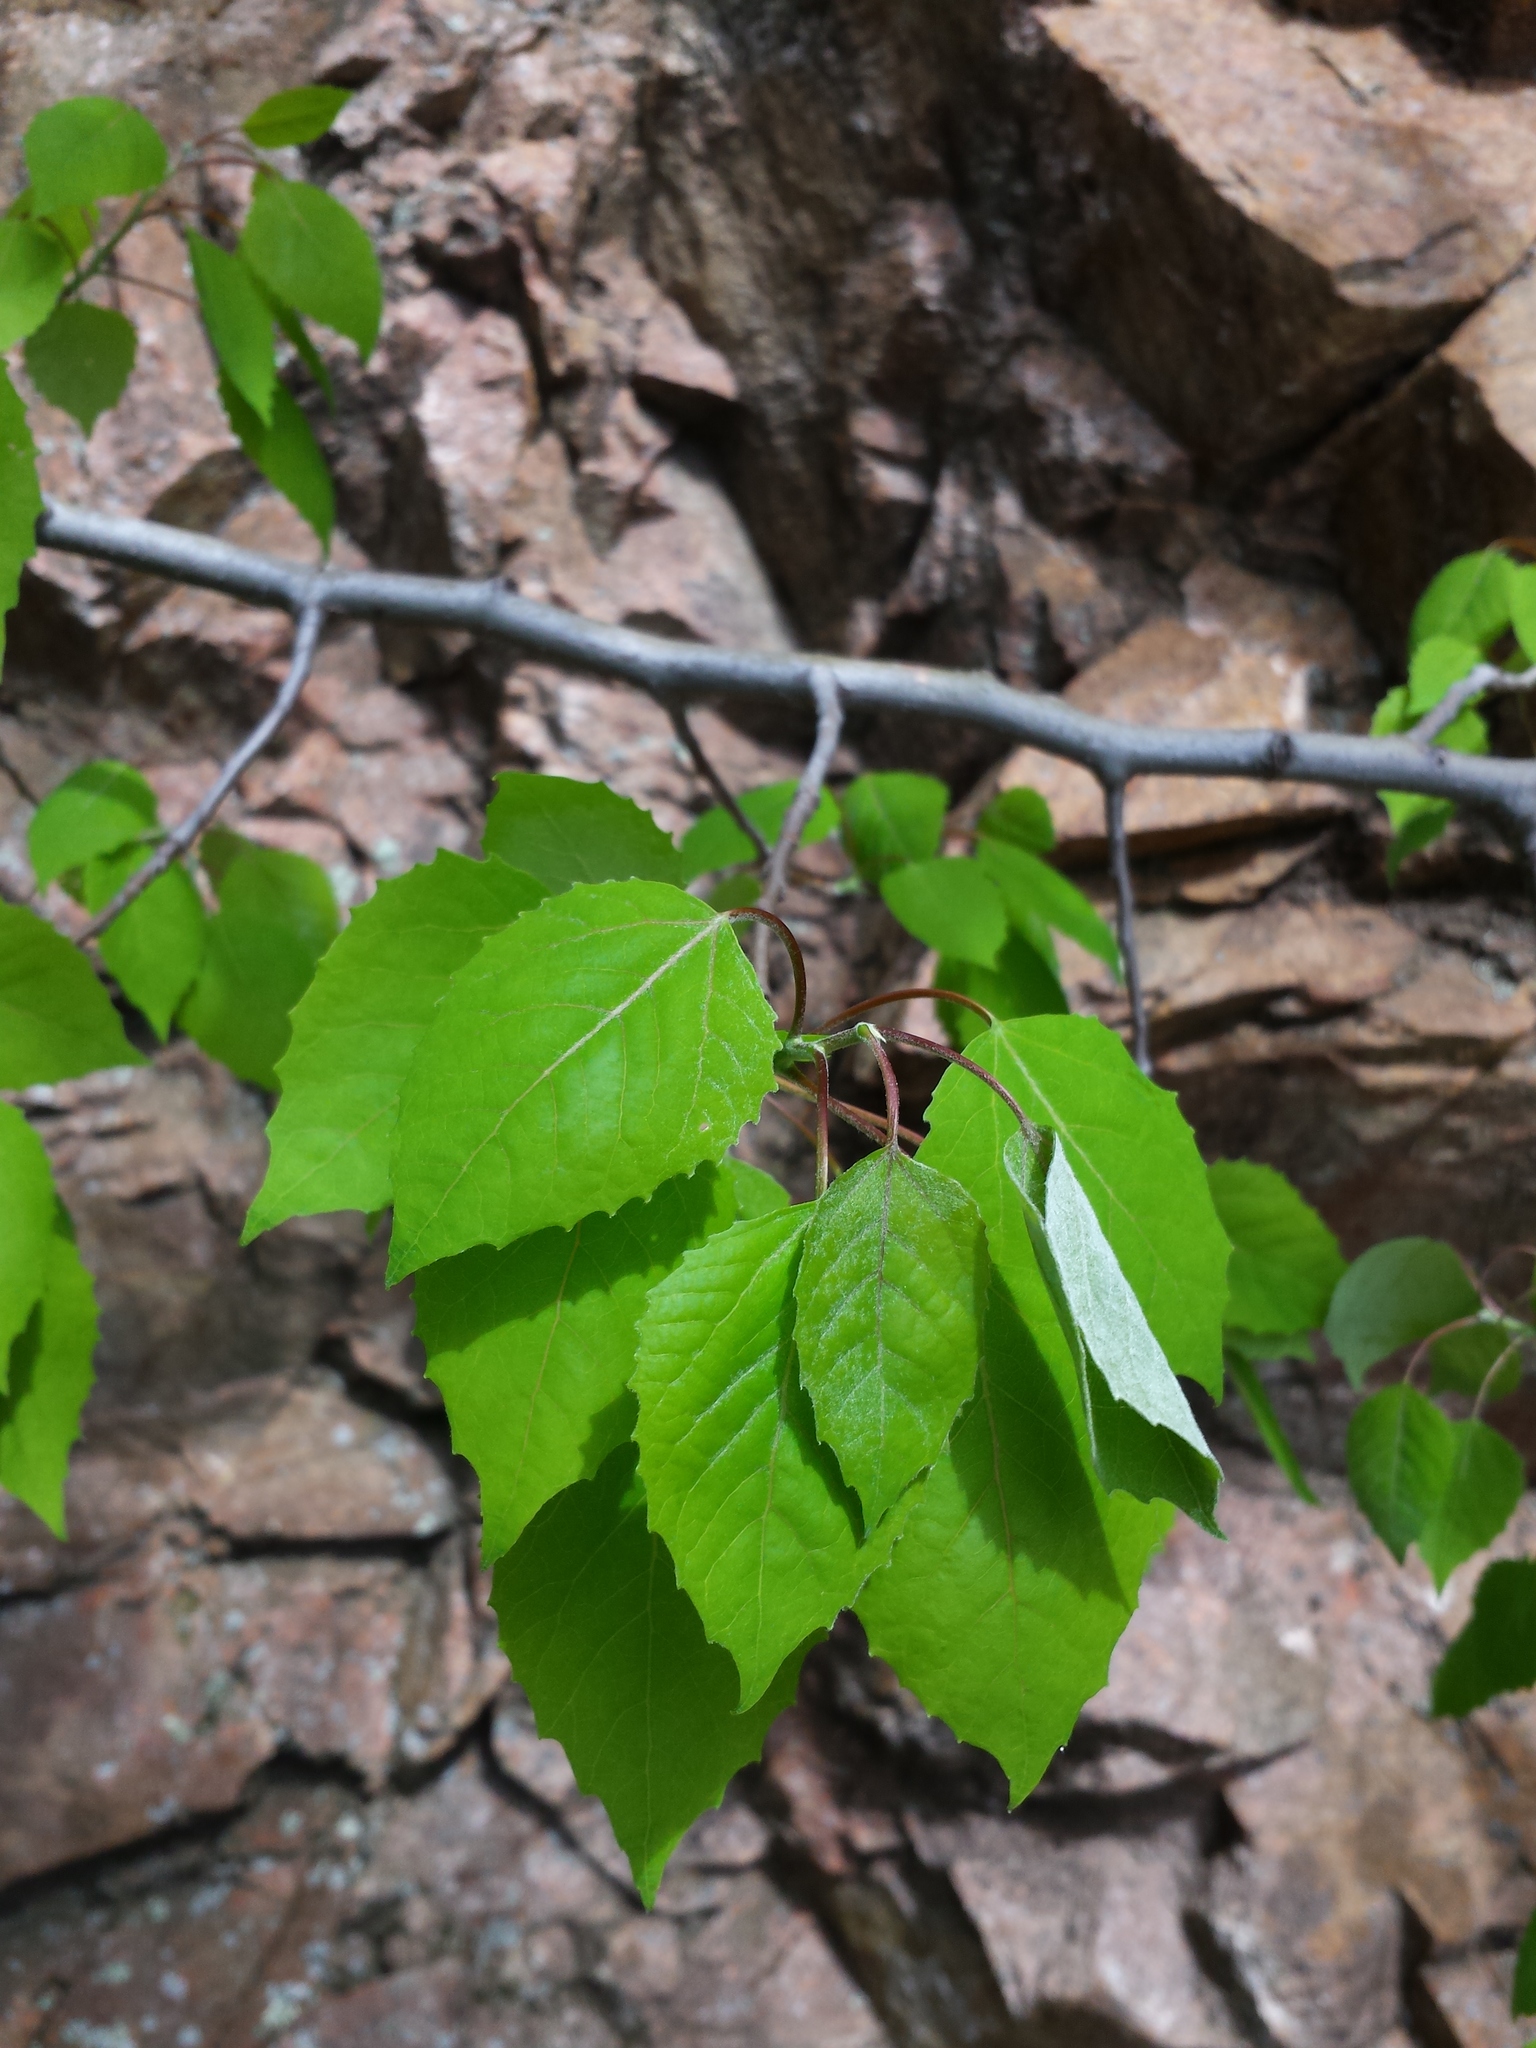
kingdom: Plantae
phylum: Tracheophyta
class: Magnoliopsida
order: Malpighiales
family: Salicaceae
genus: Populus
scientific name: Populus grandidentata
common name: Bigtooth aspen
